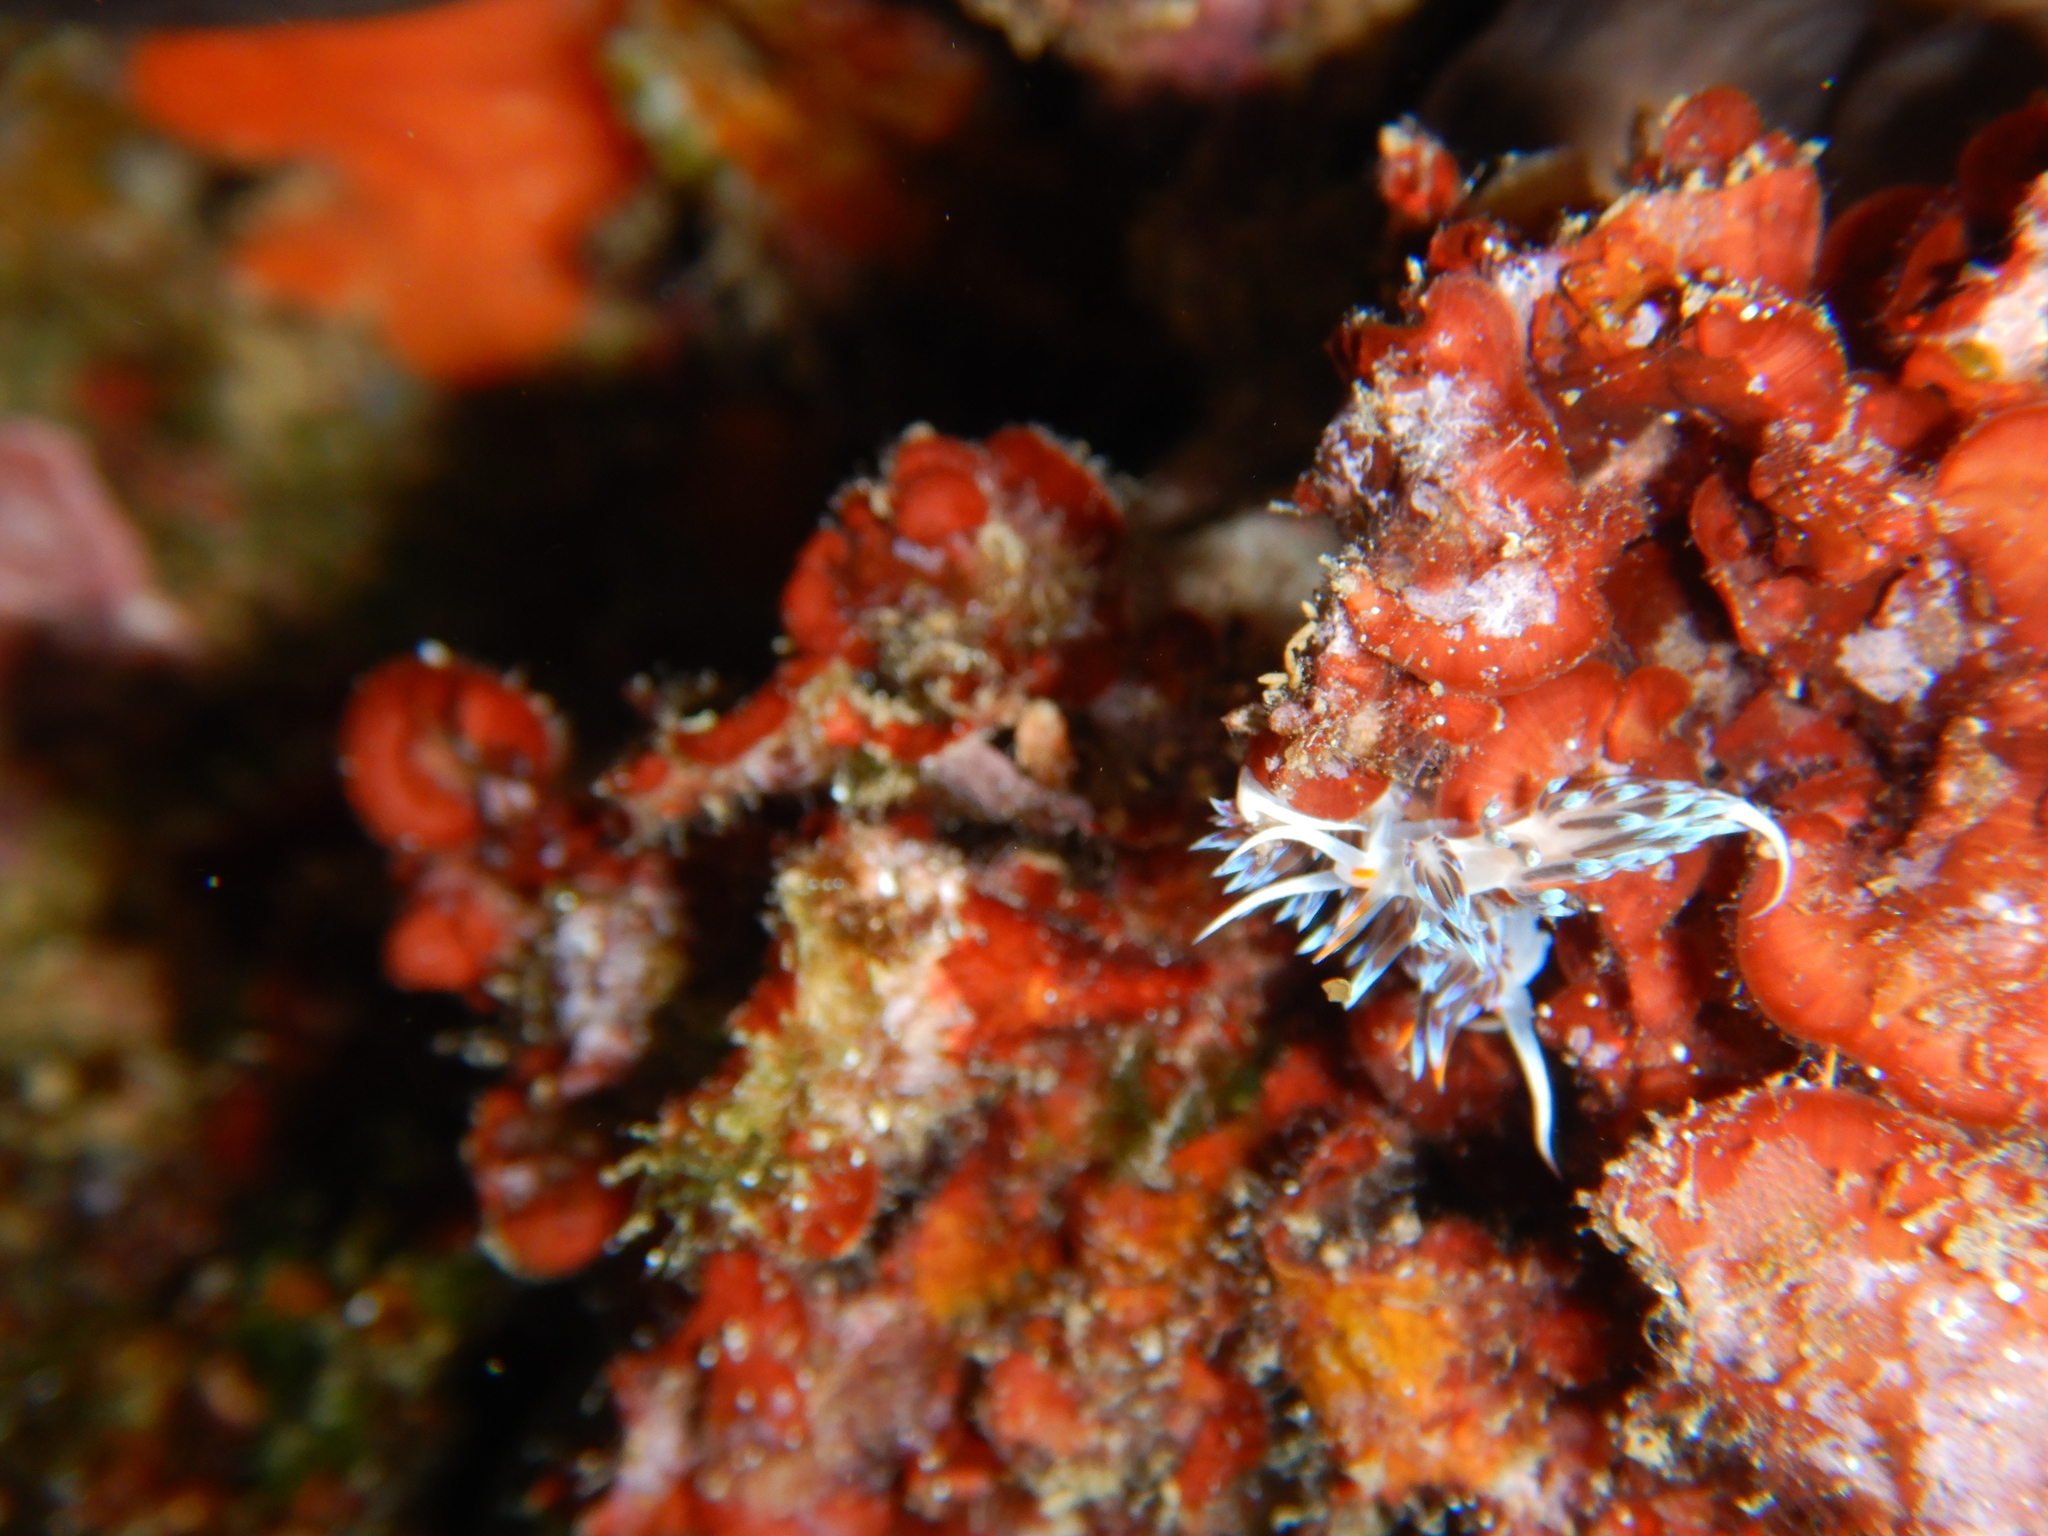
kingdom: Animalia
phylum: Mollusca
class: Gastropoda
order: Nudibranchia
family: Facelinidae
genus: Cratena
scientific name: Cratena peregrina
